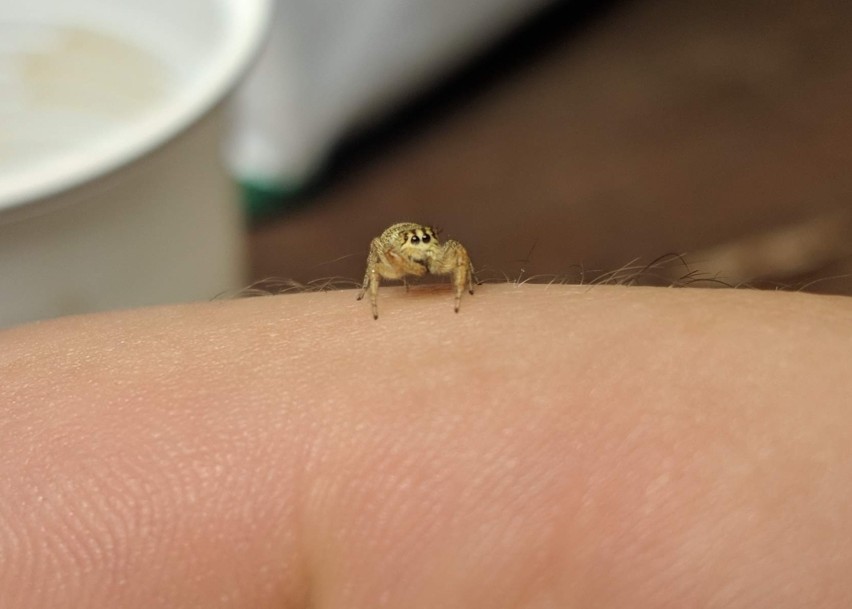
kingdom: Animalia
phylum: Arthropoda
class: Arachnida
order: Araneae
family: Salticidae
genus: Macaroeris
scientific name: Macaroeris nidicolens
